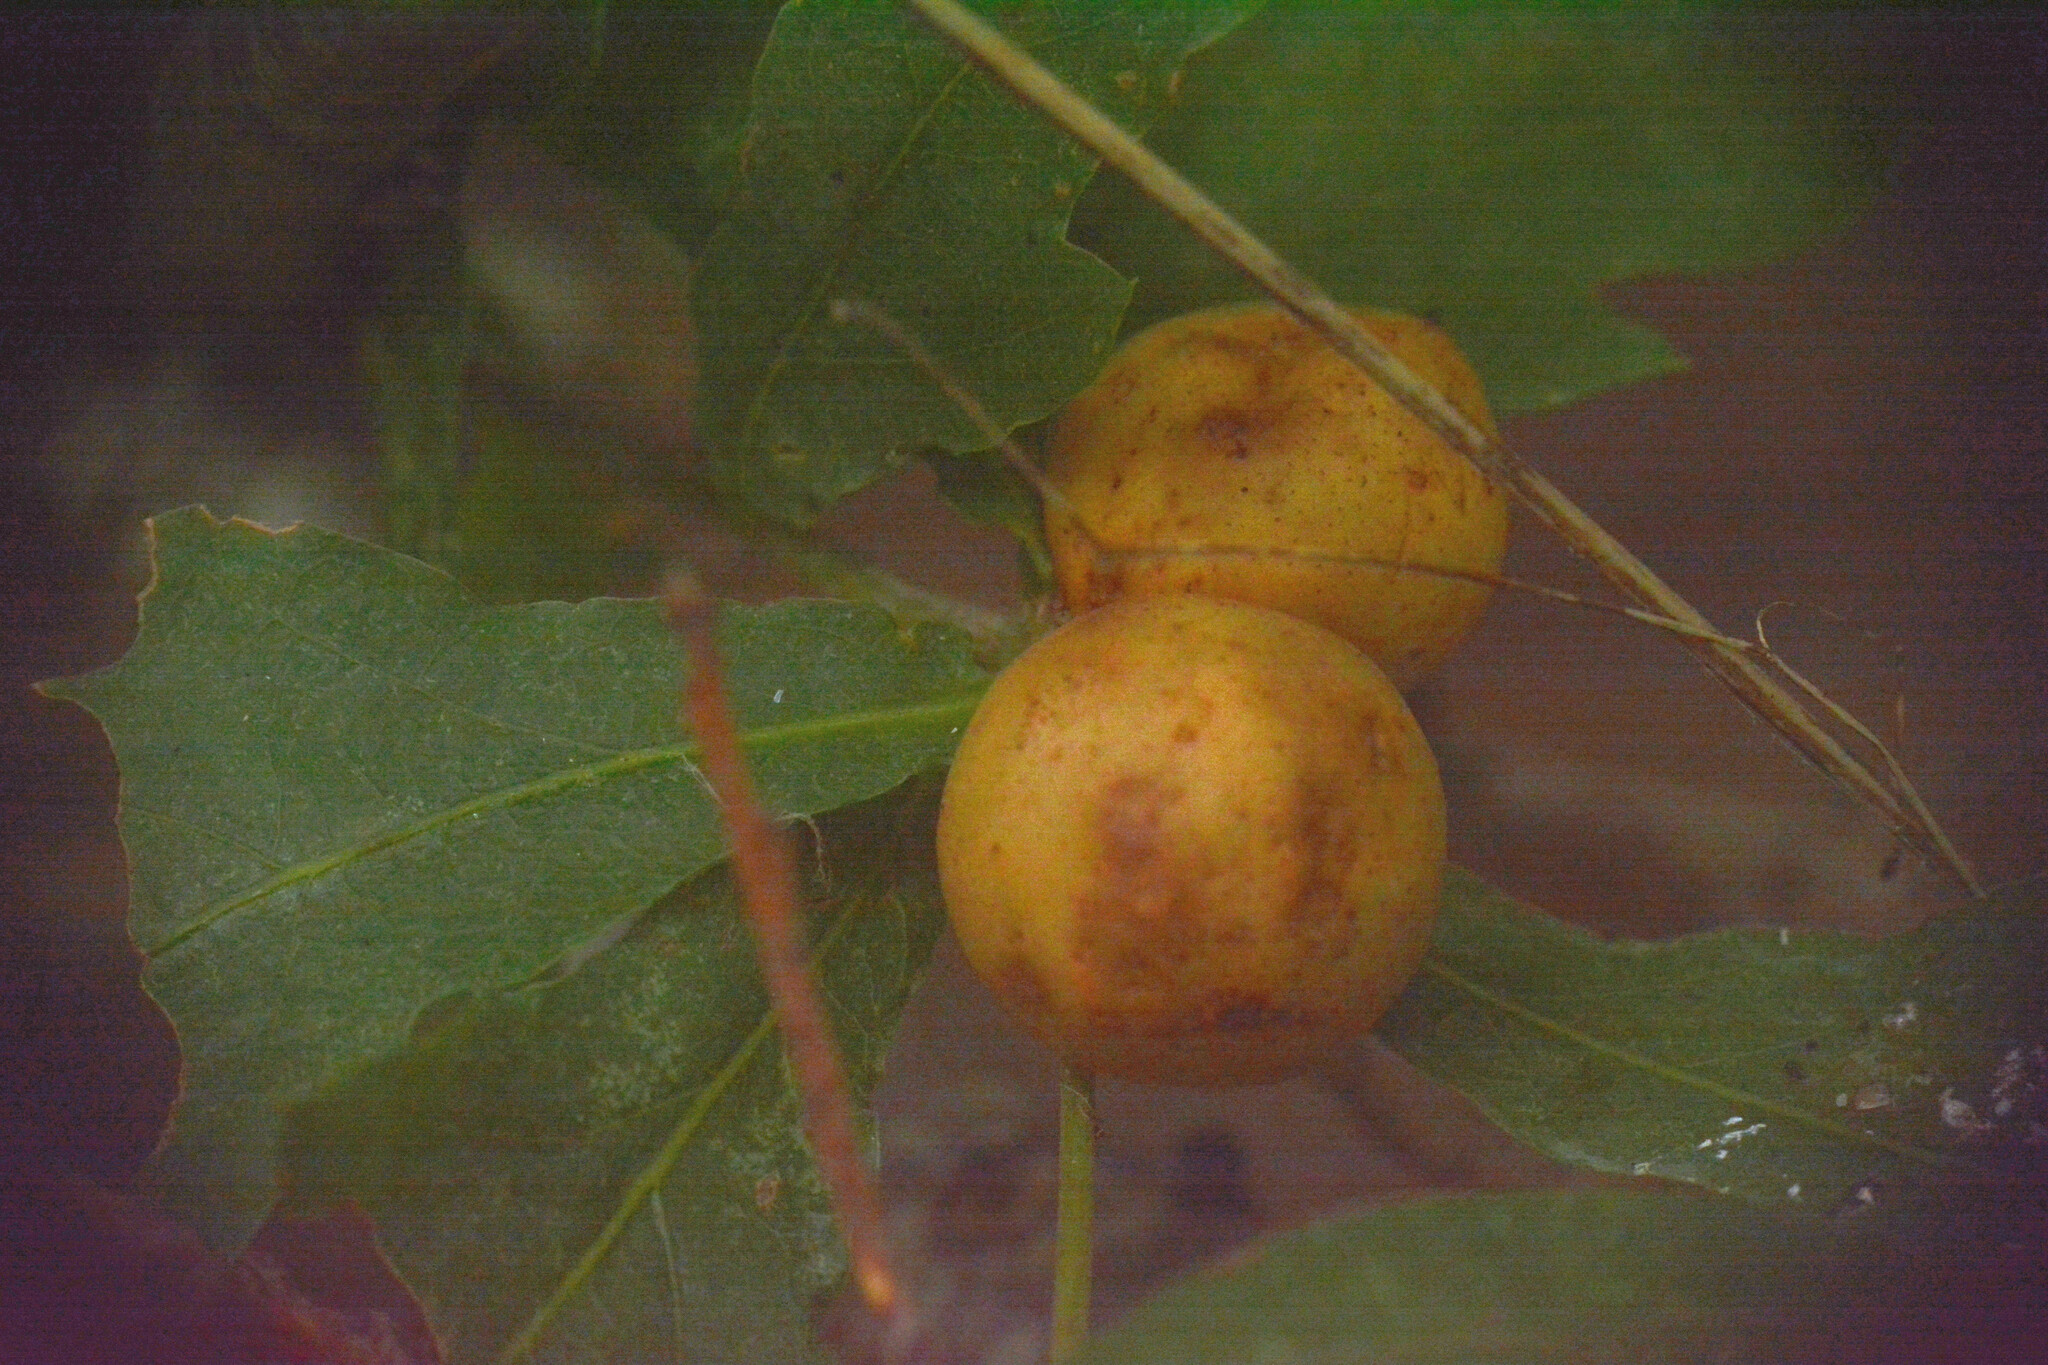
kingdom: Animalia
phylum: Arthropoda
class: Insecta
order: Hymenoptera
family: Cynipidae
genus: Andricus
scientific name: Andricus kollari
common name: Marble gall
